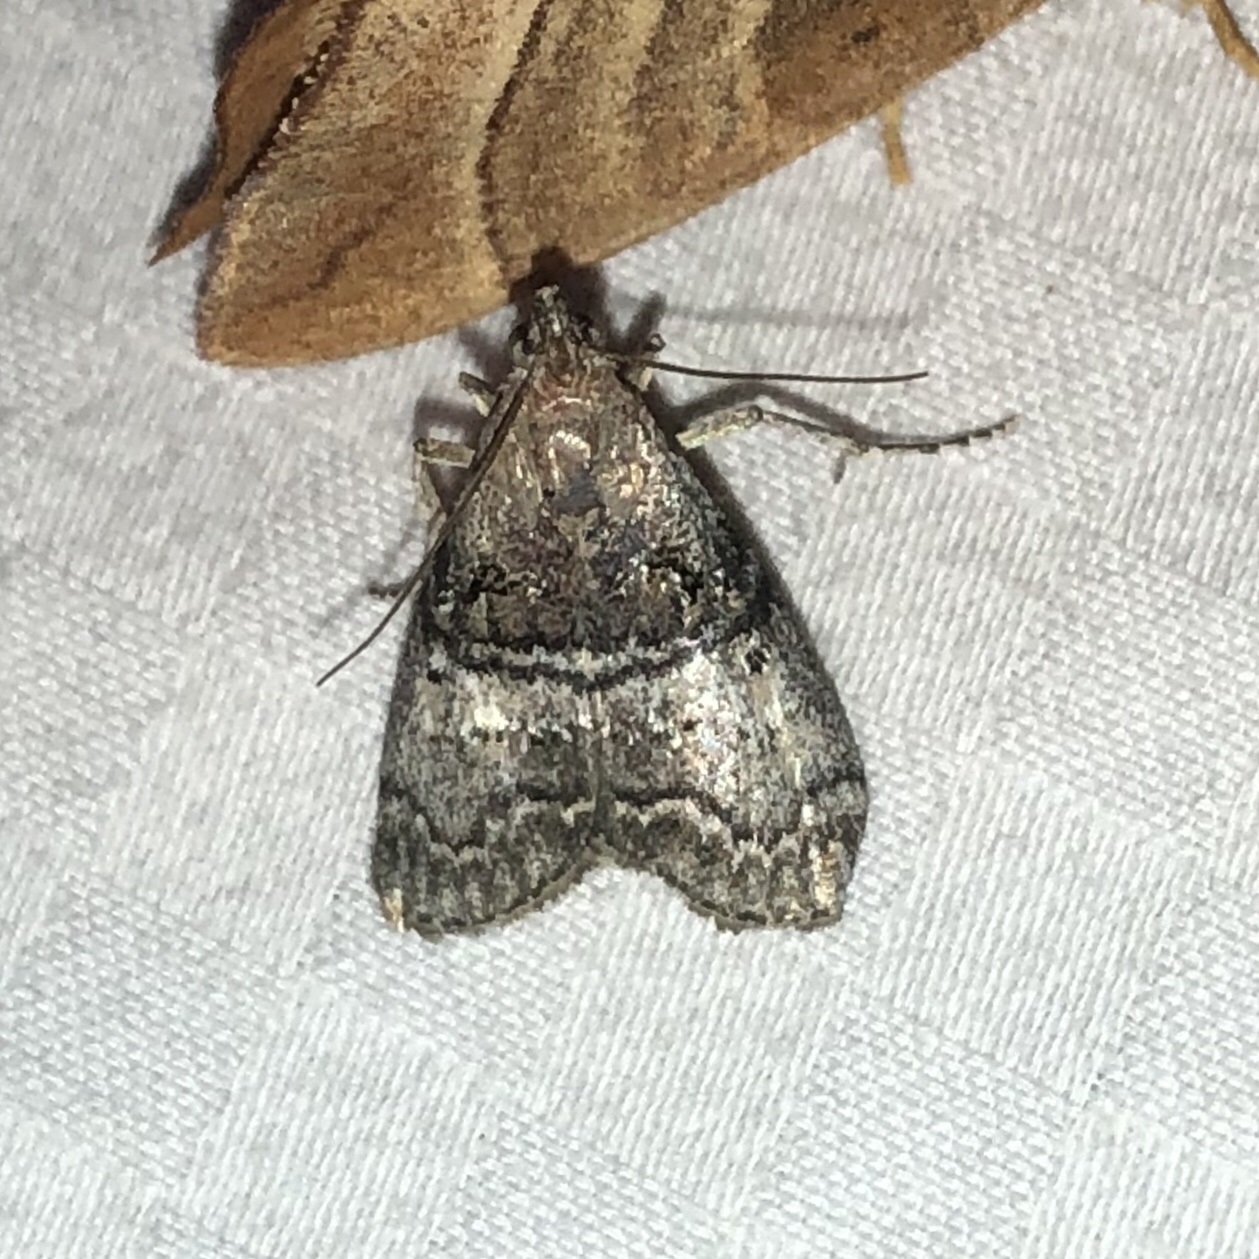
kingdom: Animalia
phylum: Arthropoda
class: Insecta
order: Lepidoptera
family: Pyralidae
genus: Pococera
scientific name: Pococera asperatella
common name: Maple webworm moth
